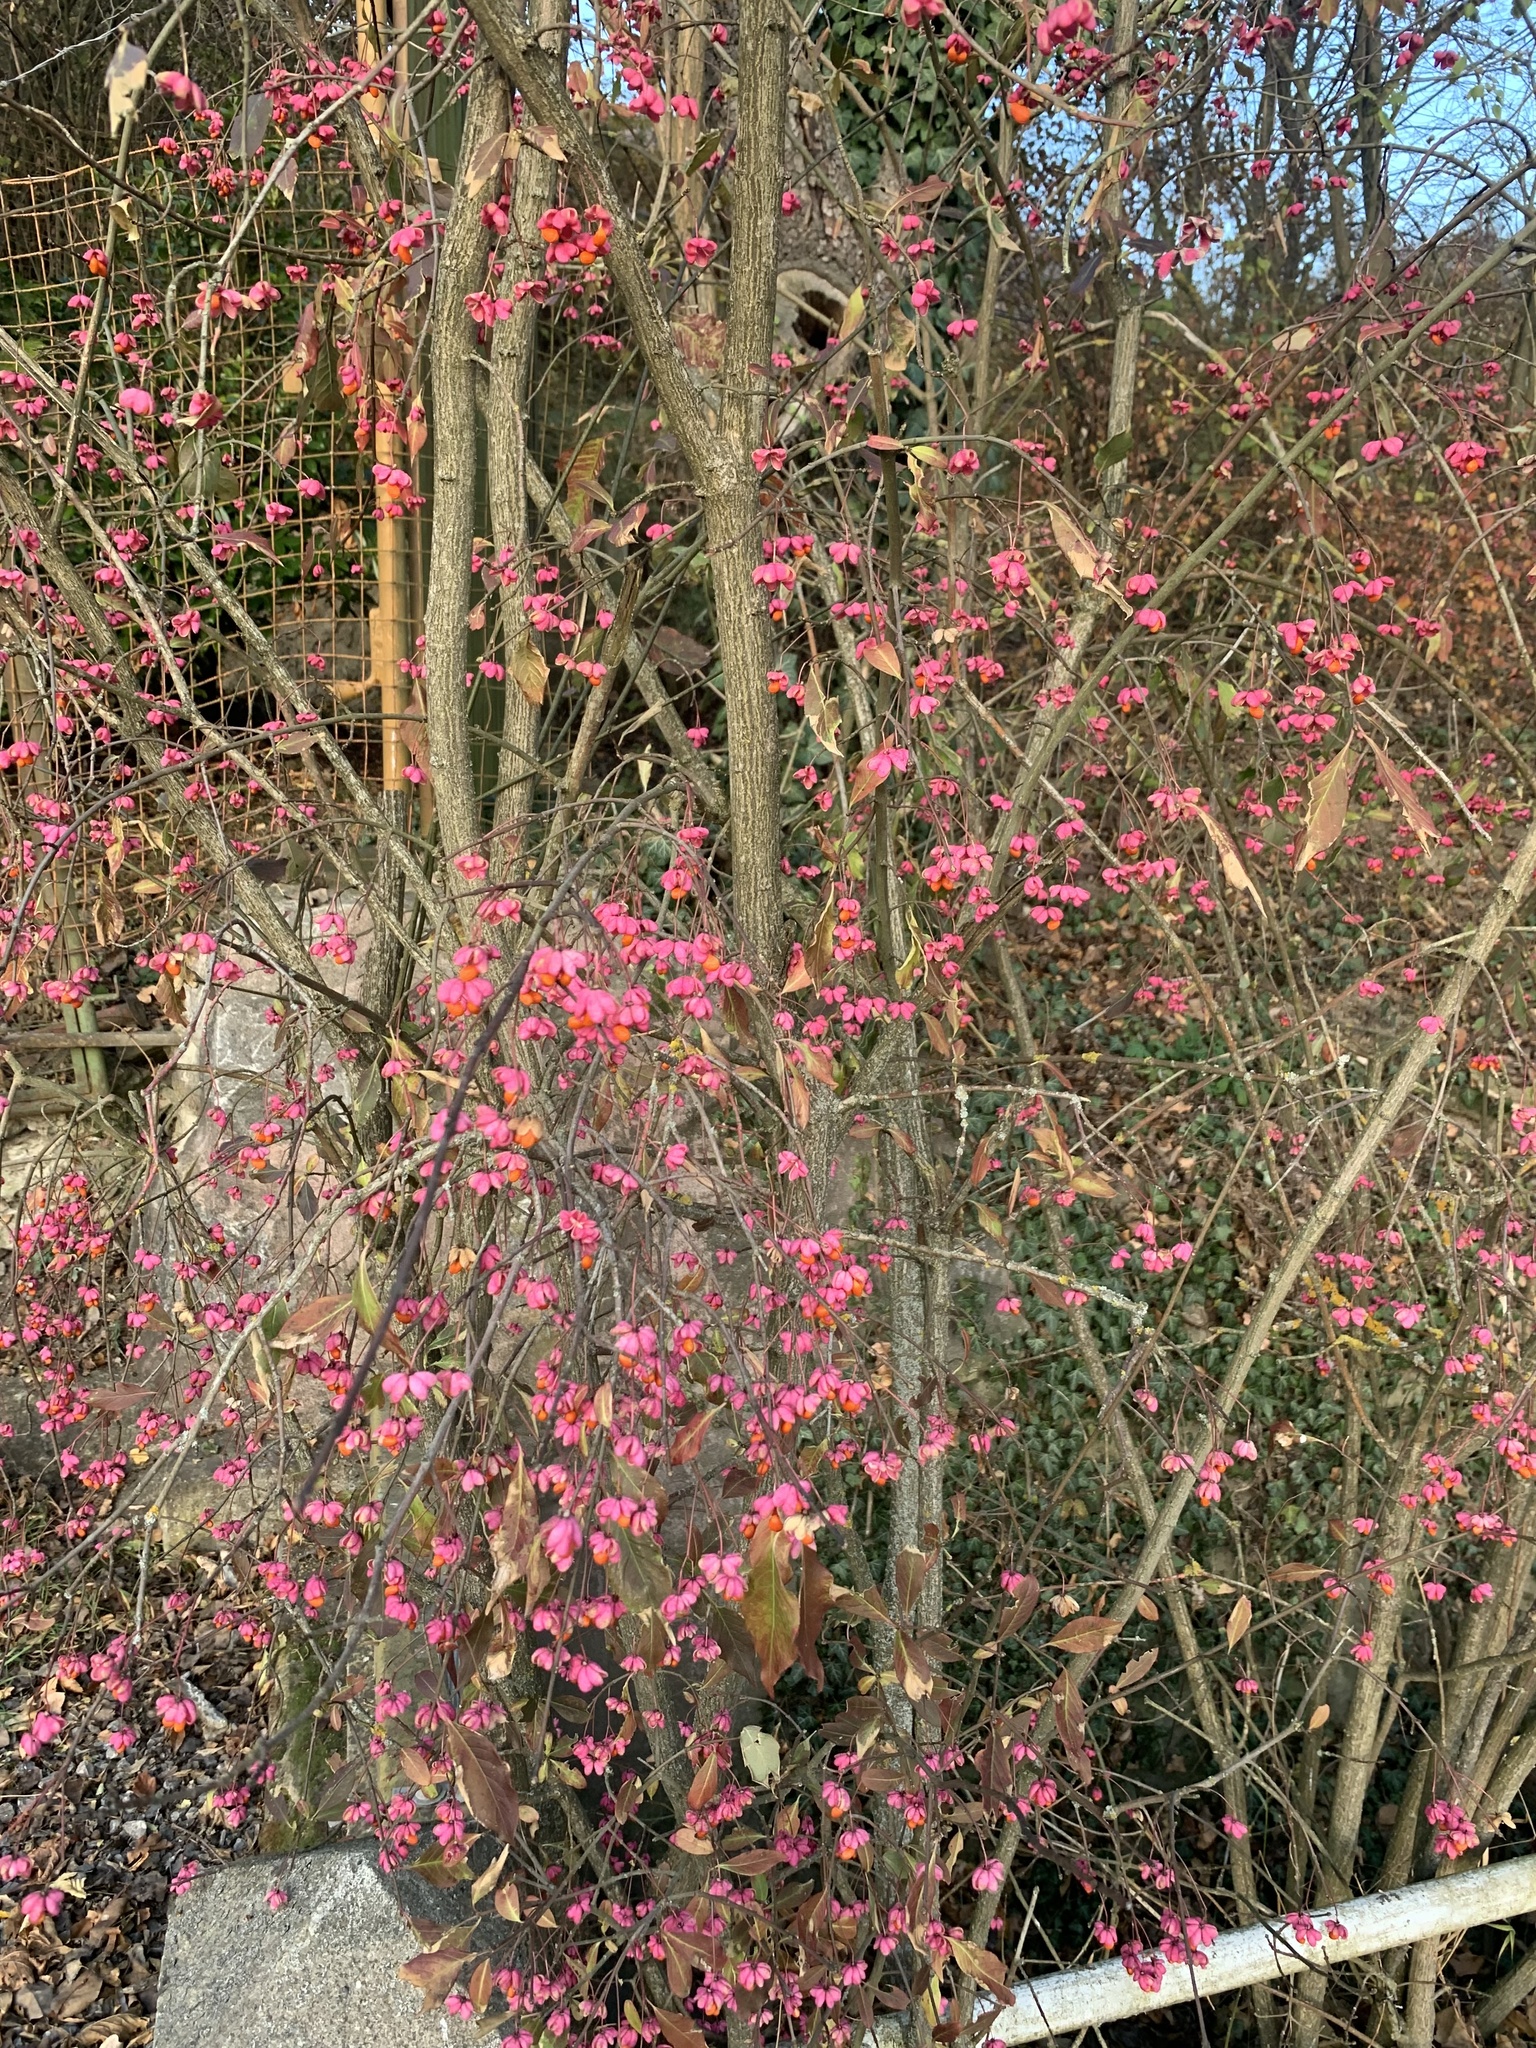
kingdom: Plantae
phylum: Tracheophyta
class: Magnoliopsida
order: Celastrales
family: Celastraceae
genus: Euonymus
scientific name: Euonymus europaeus
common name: Spindle
